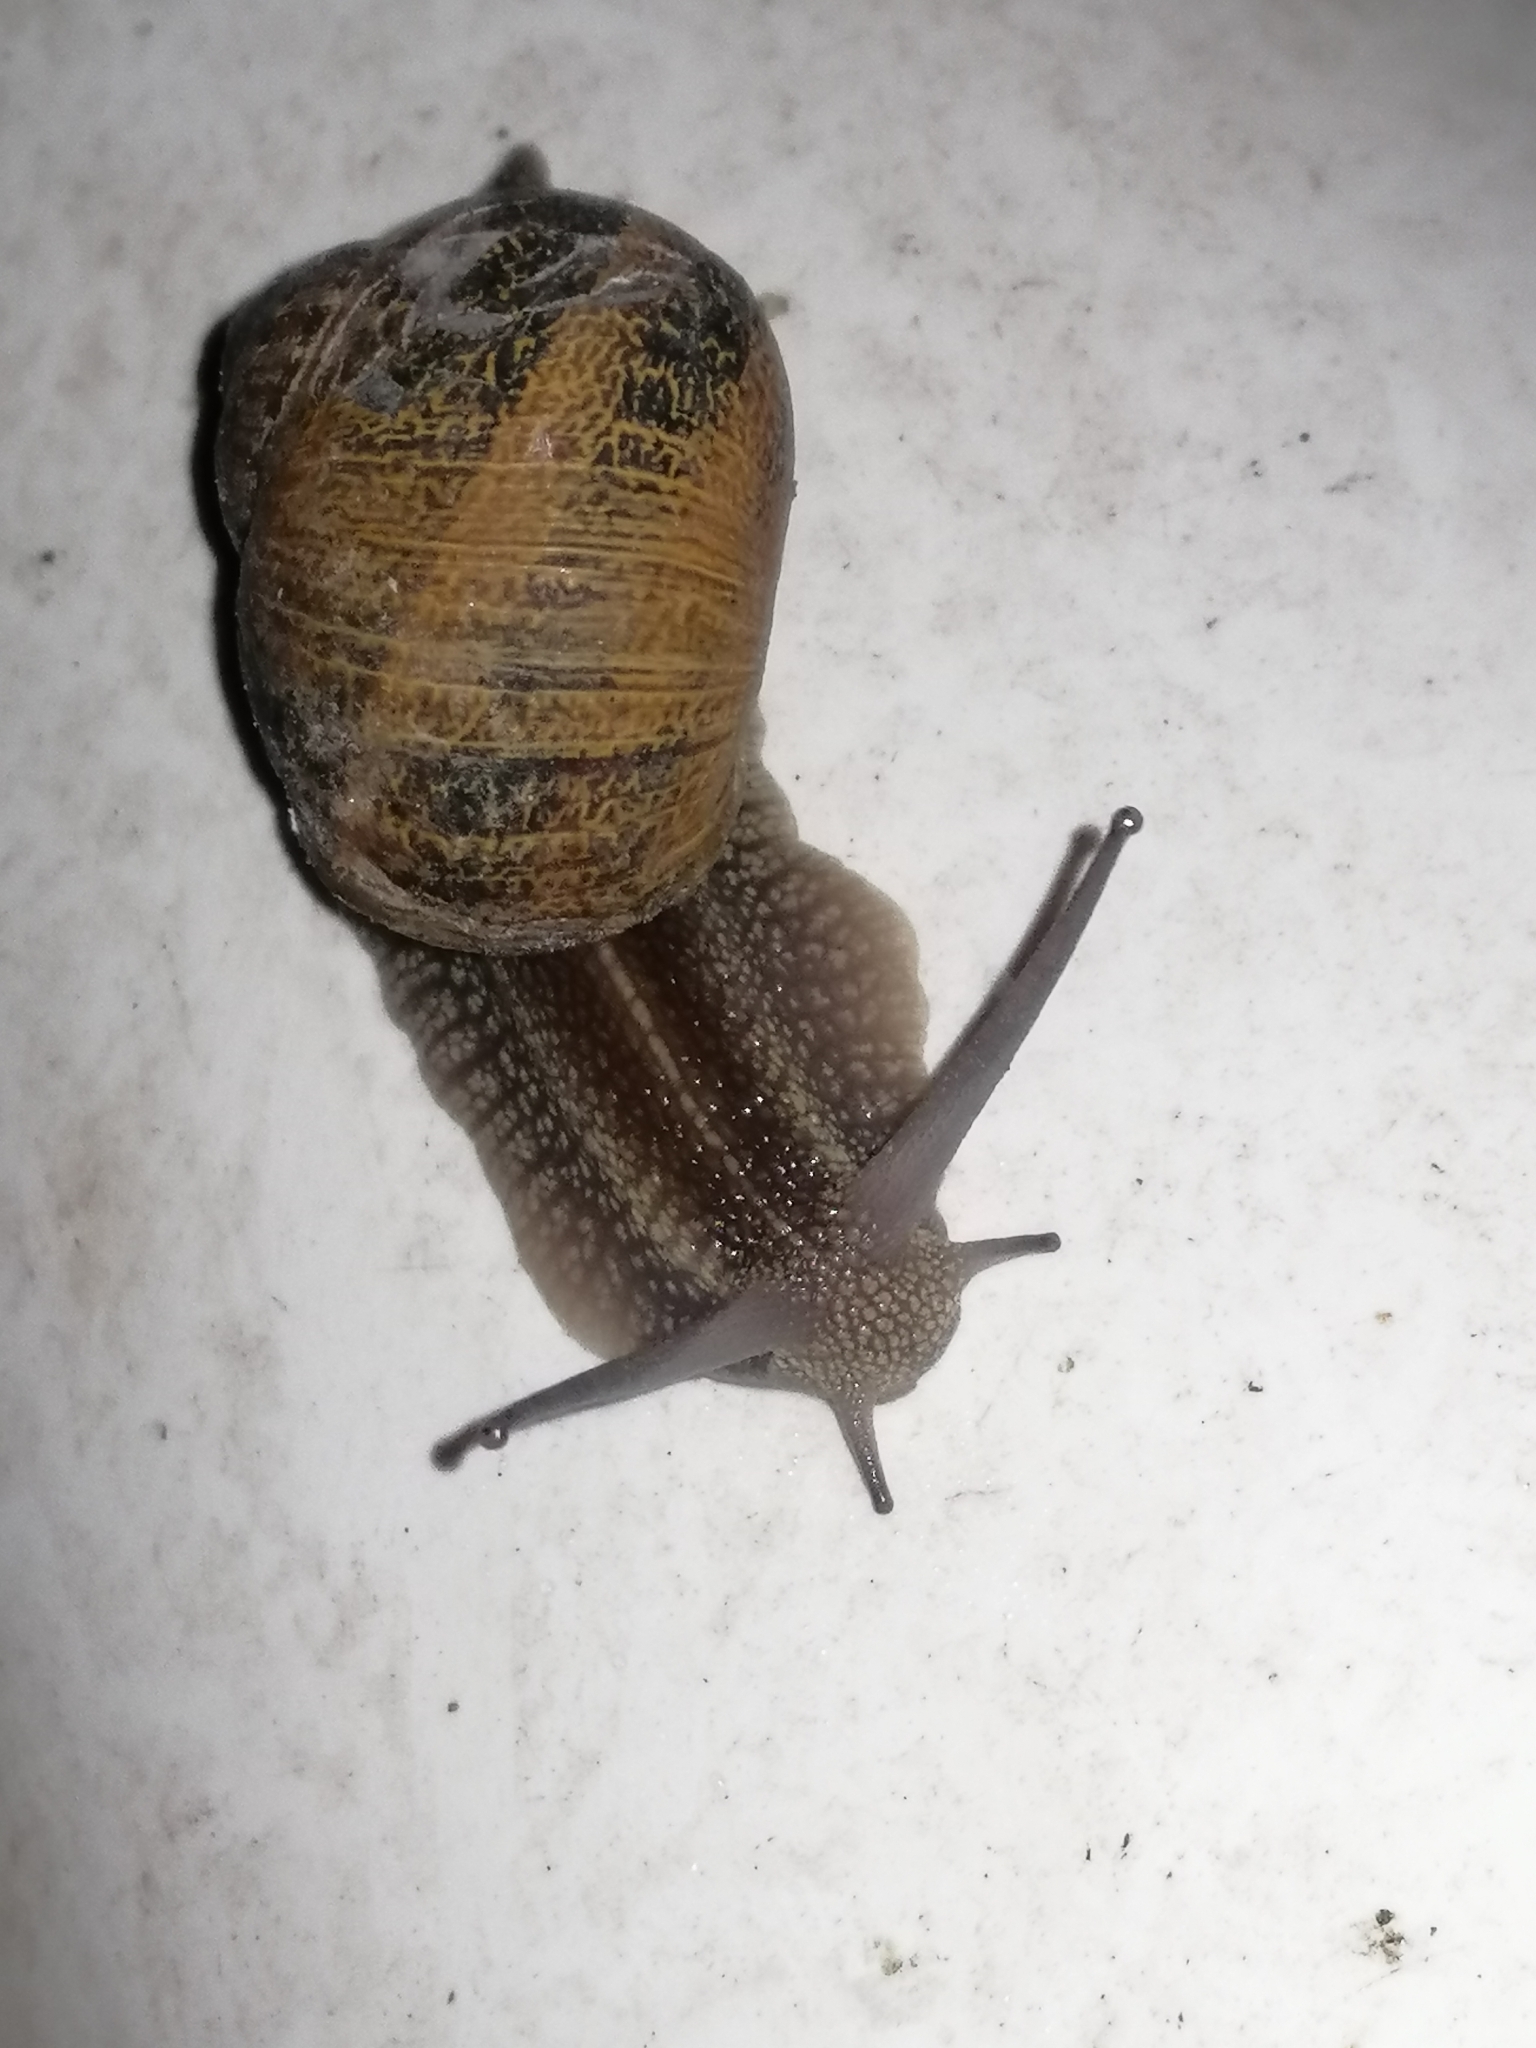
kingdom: Animalia
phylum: Mollusca
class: Gastropoda
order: Stylommatophora
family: Helicidae
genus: Cornu
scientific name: Cornu aspersum
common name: Brown garden snail
